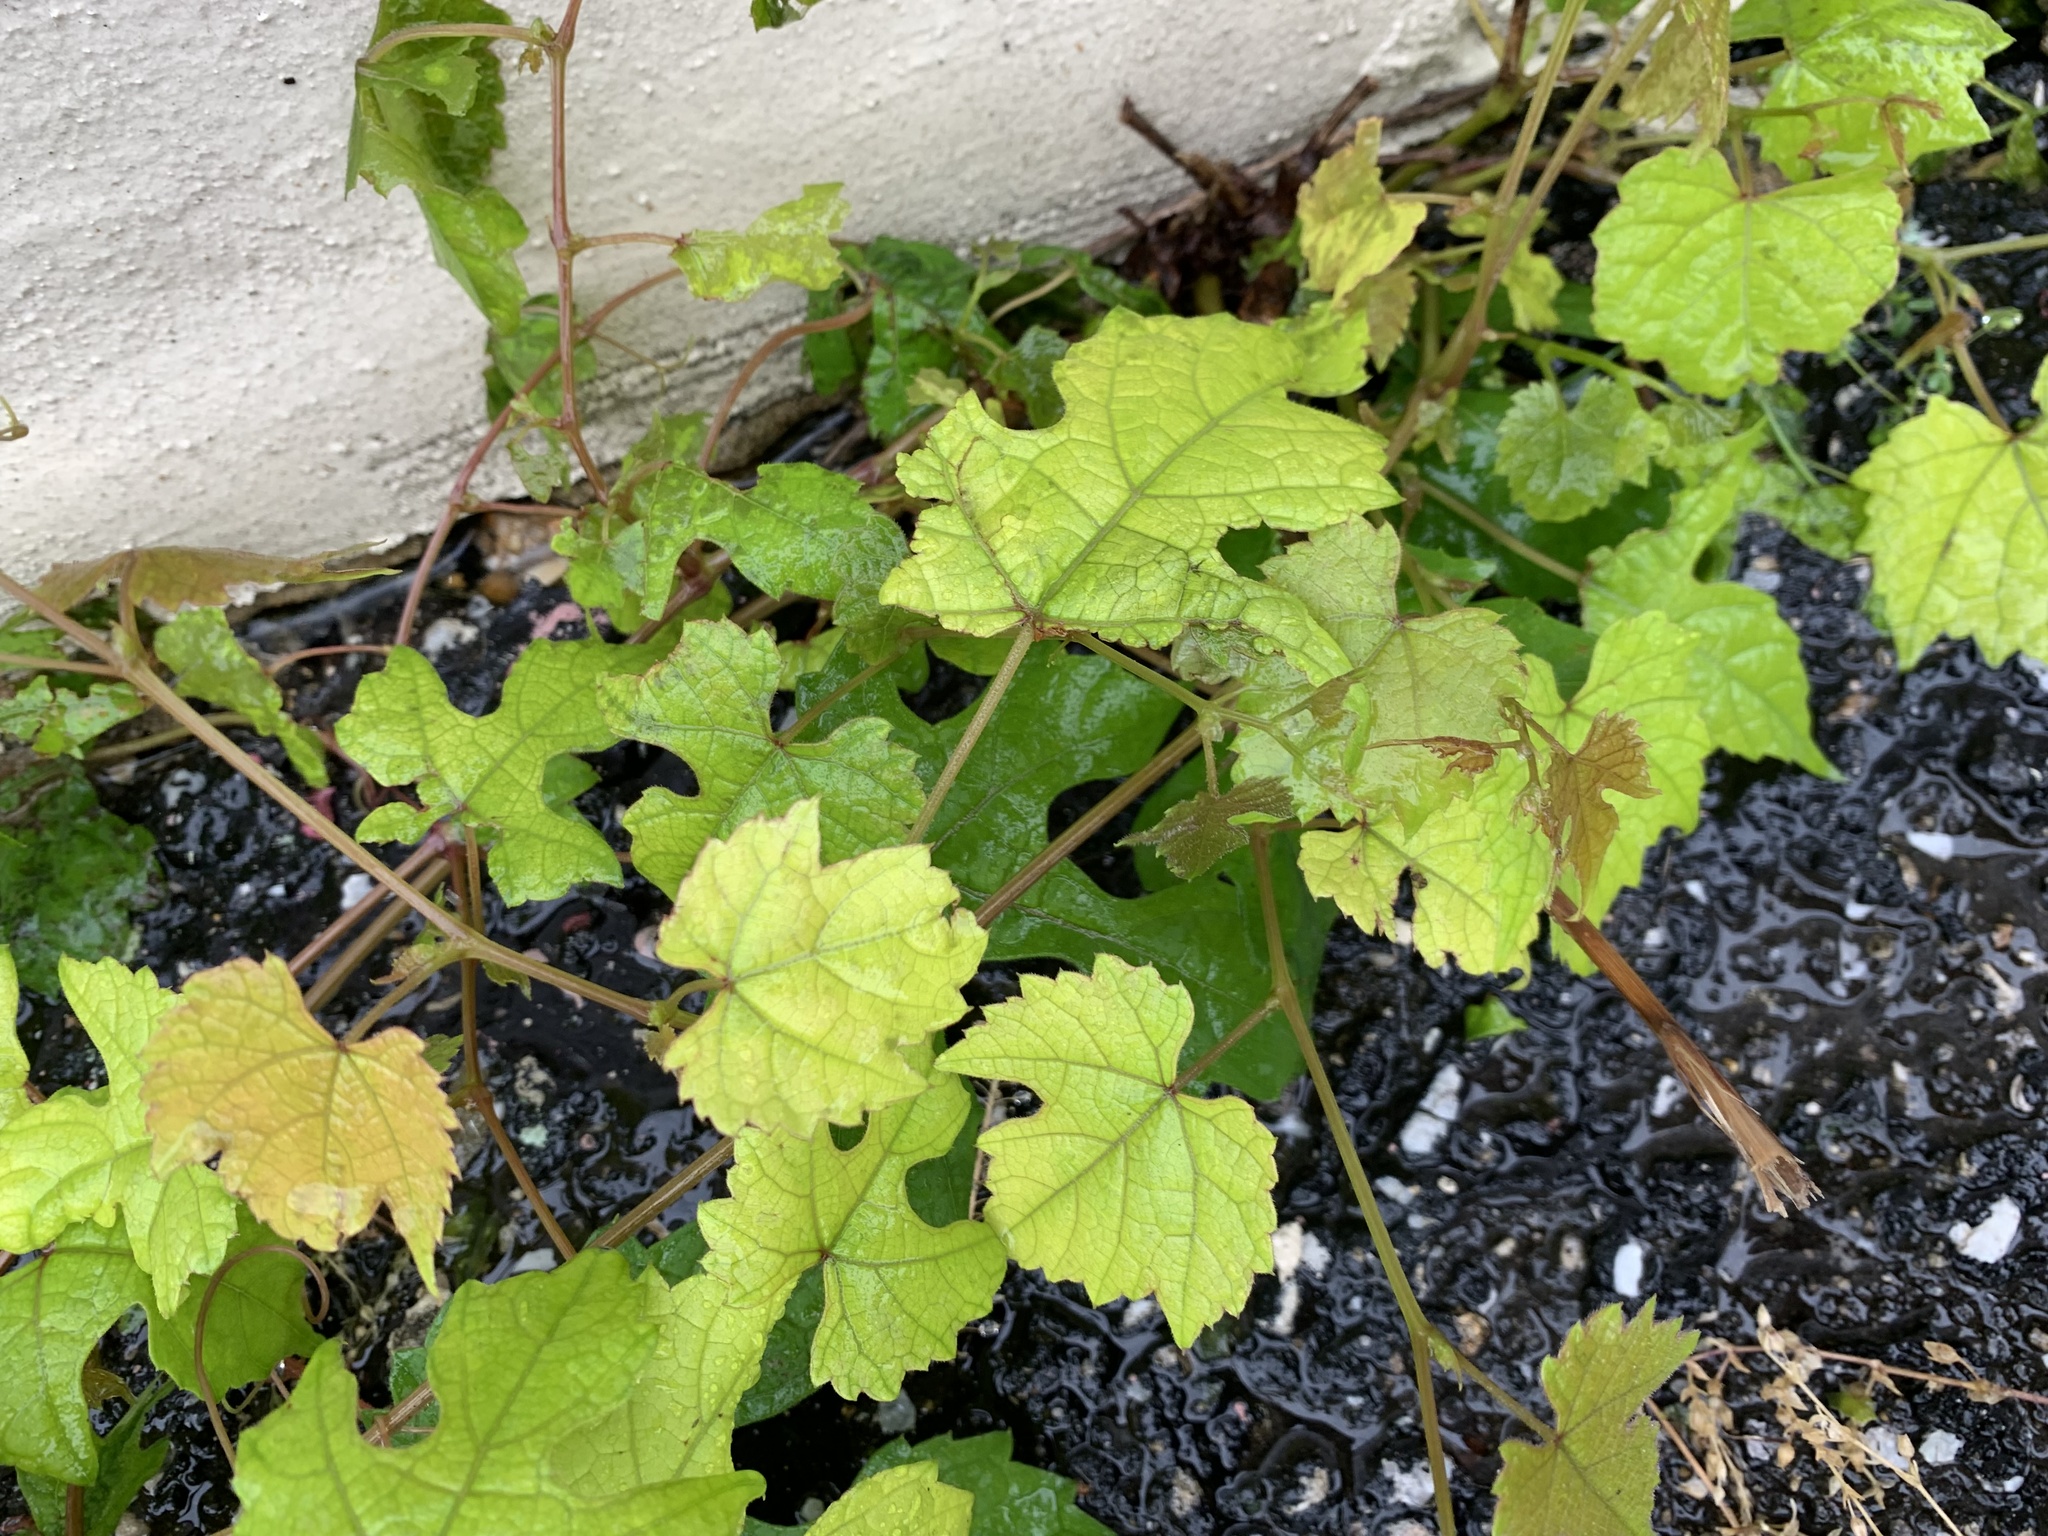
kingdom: Plantae
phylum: Tracheophyta
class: Magnoliopsida
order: Vitales
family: Vitaceae
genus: Ampelopsis
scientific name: Ampelopsis glandulosa
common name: Amur peppervine
